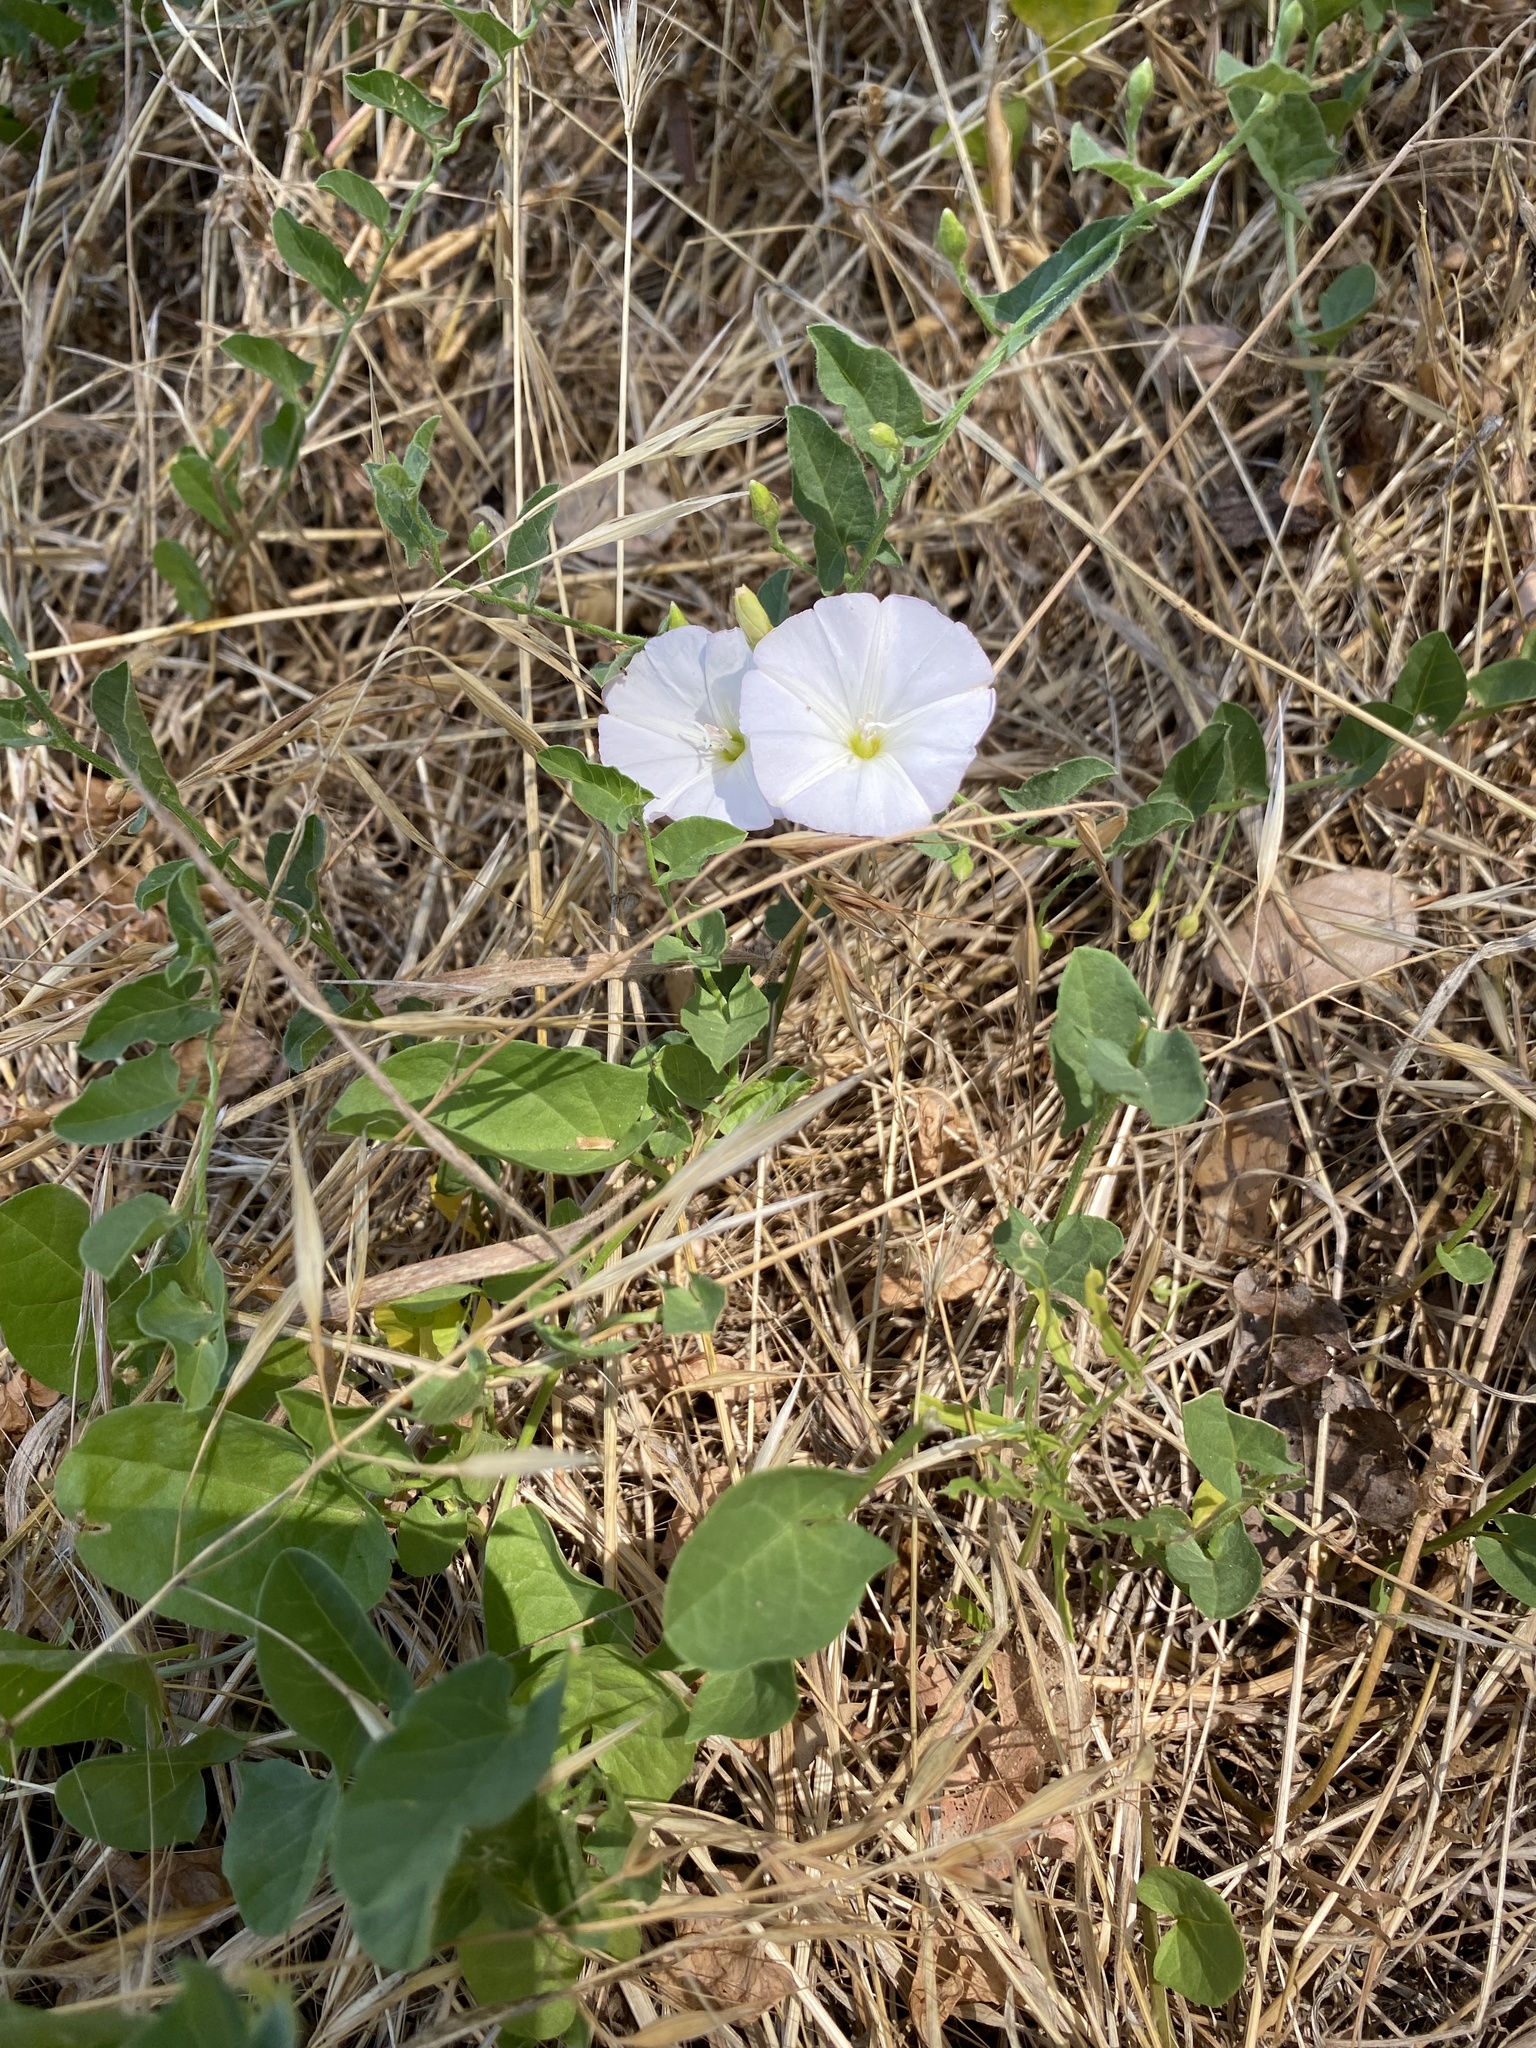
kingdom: Plantae
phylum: Tracheophyta
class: Magnoliopsida
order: Solanales
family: Convolvulaceae
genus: Convolvulus
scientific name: Convolvulus arvensis
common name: Field bindweed
